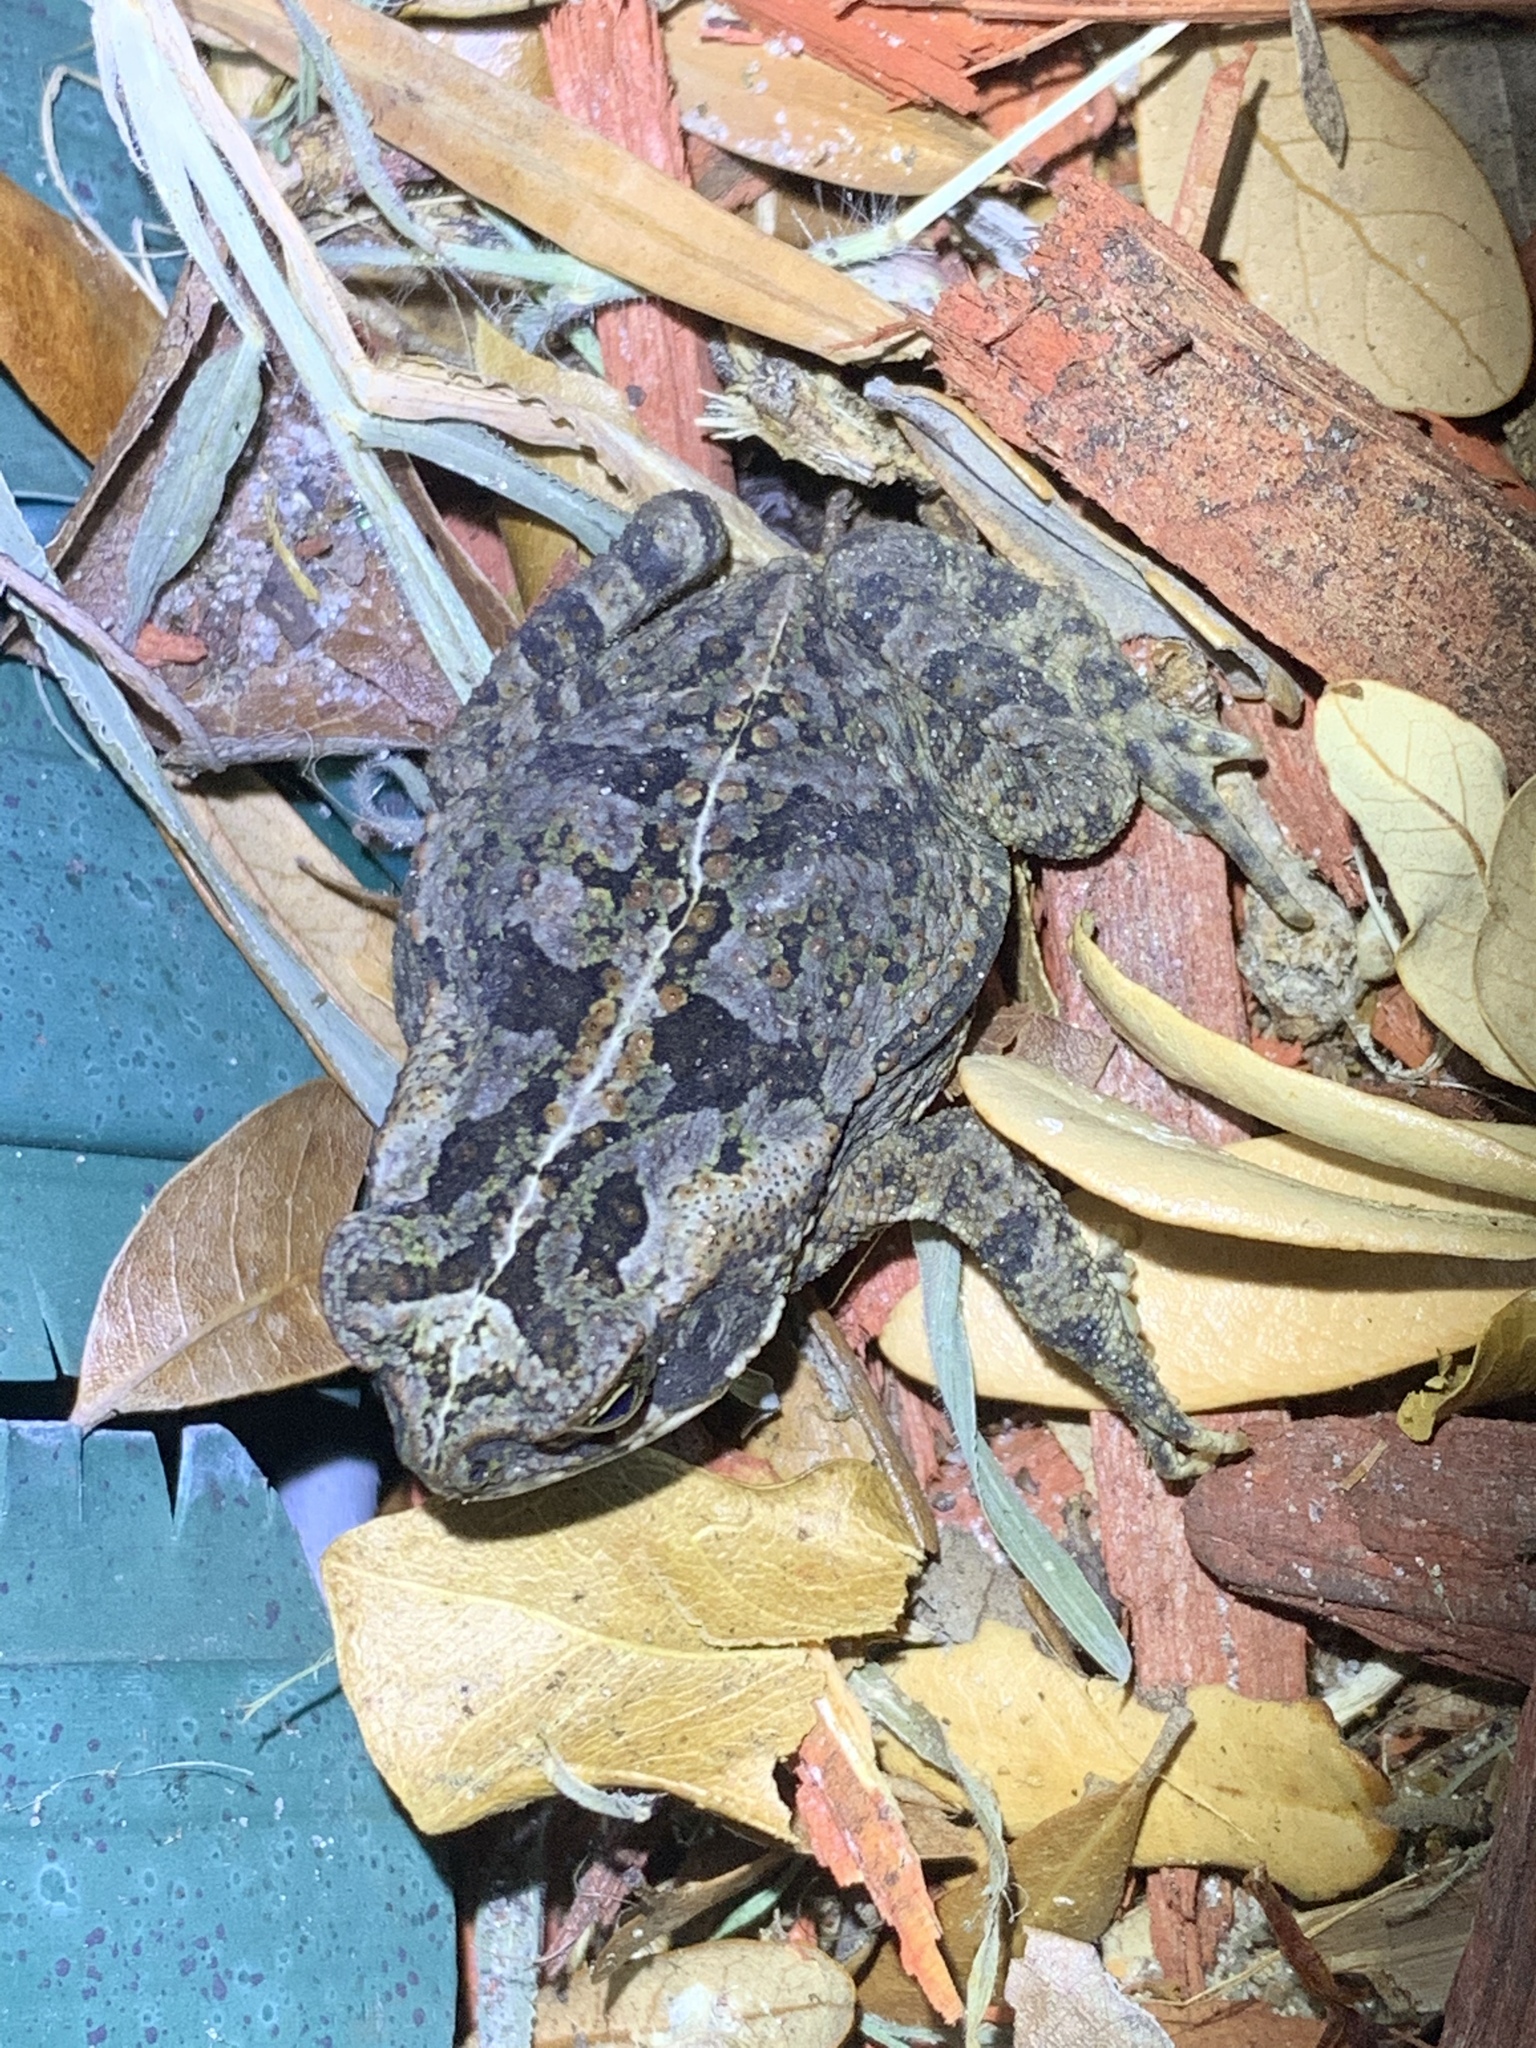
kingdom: Animalia
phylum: Chordata
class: Amphibia
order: Anura
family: Bufonidae
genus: Rhinella
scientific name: Rhinella marina
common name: Cane toad
